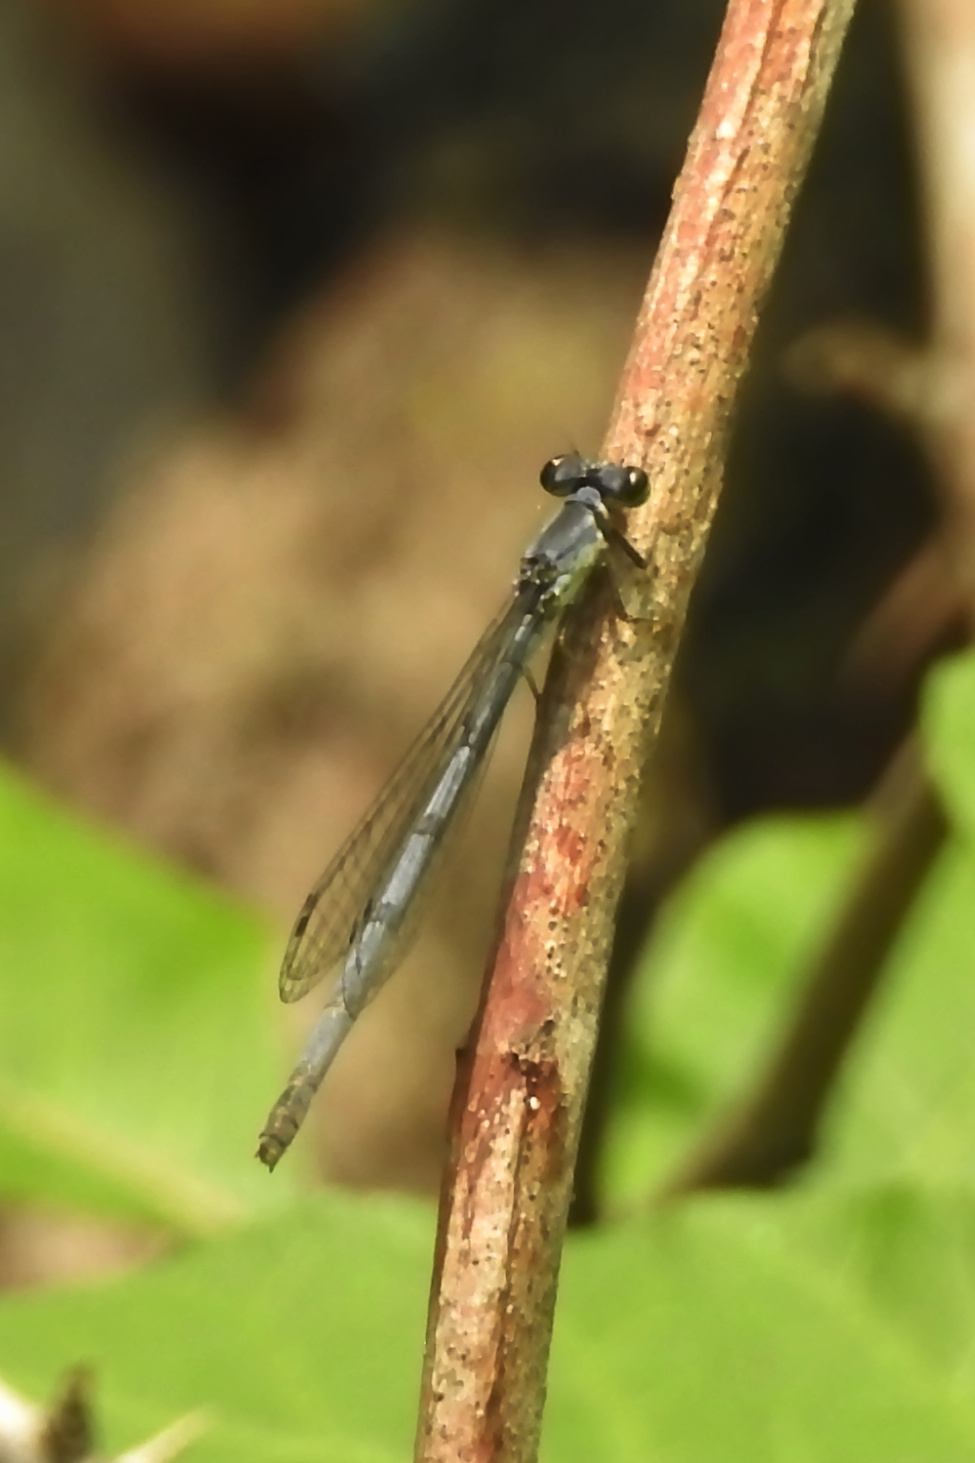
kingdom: Animalia
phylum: Arthropoda
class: Insecta
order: Odonata
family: Coenagrionidae
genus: Ischnura
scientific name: Ischnura posita
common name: Fragile forktail
